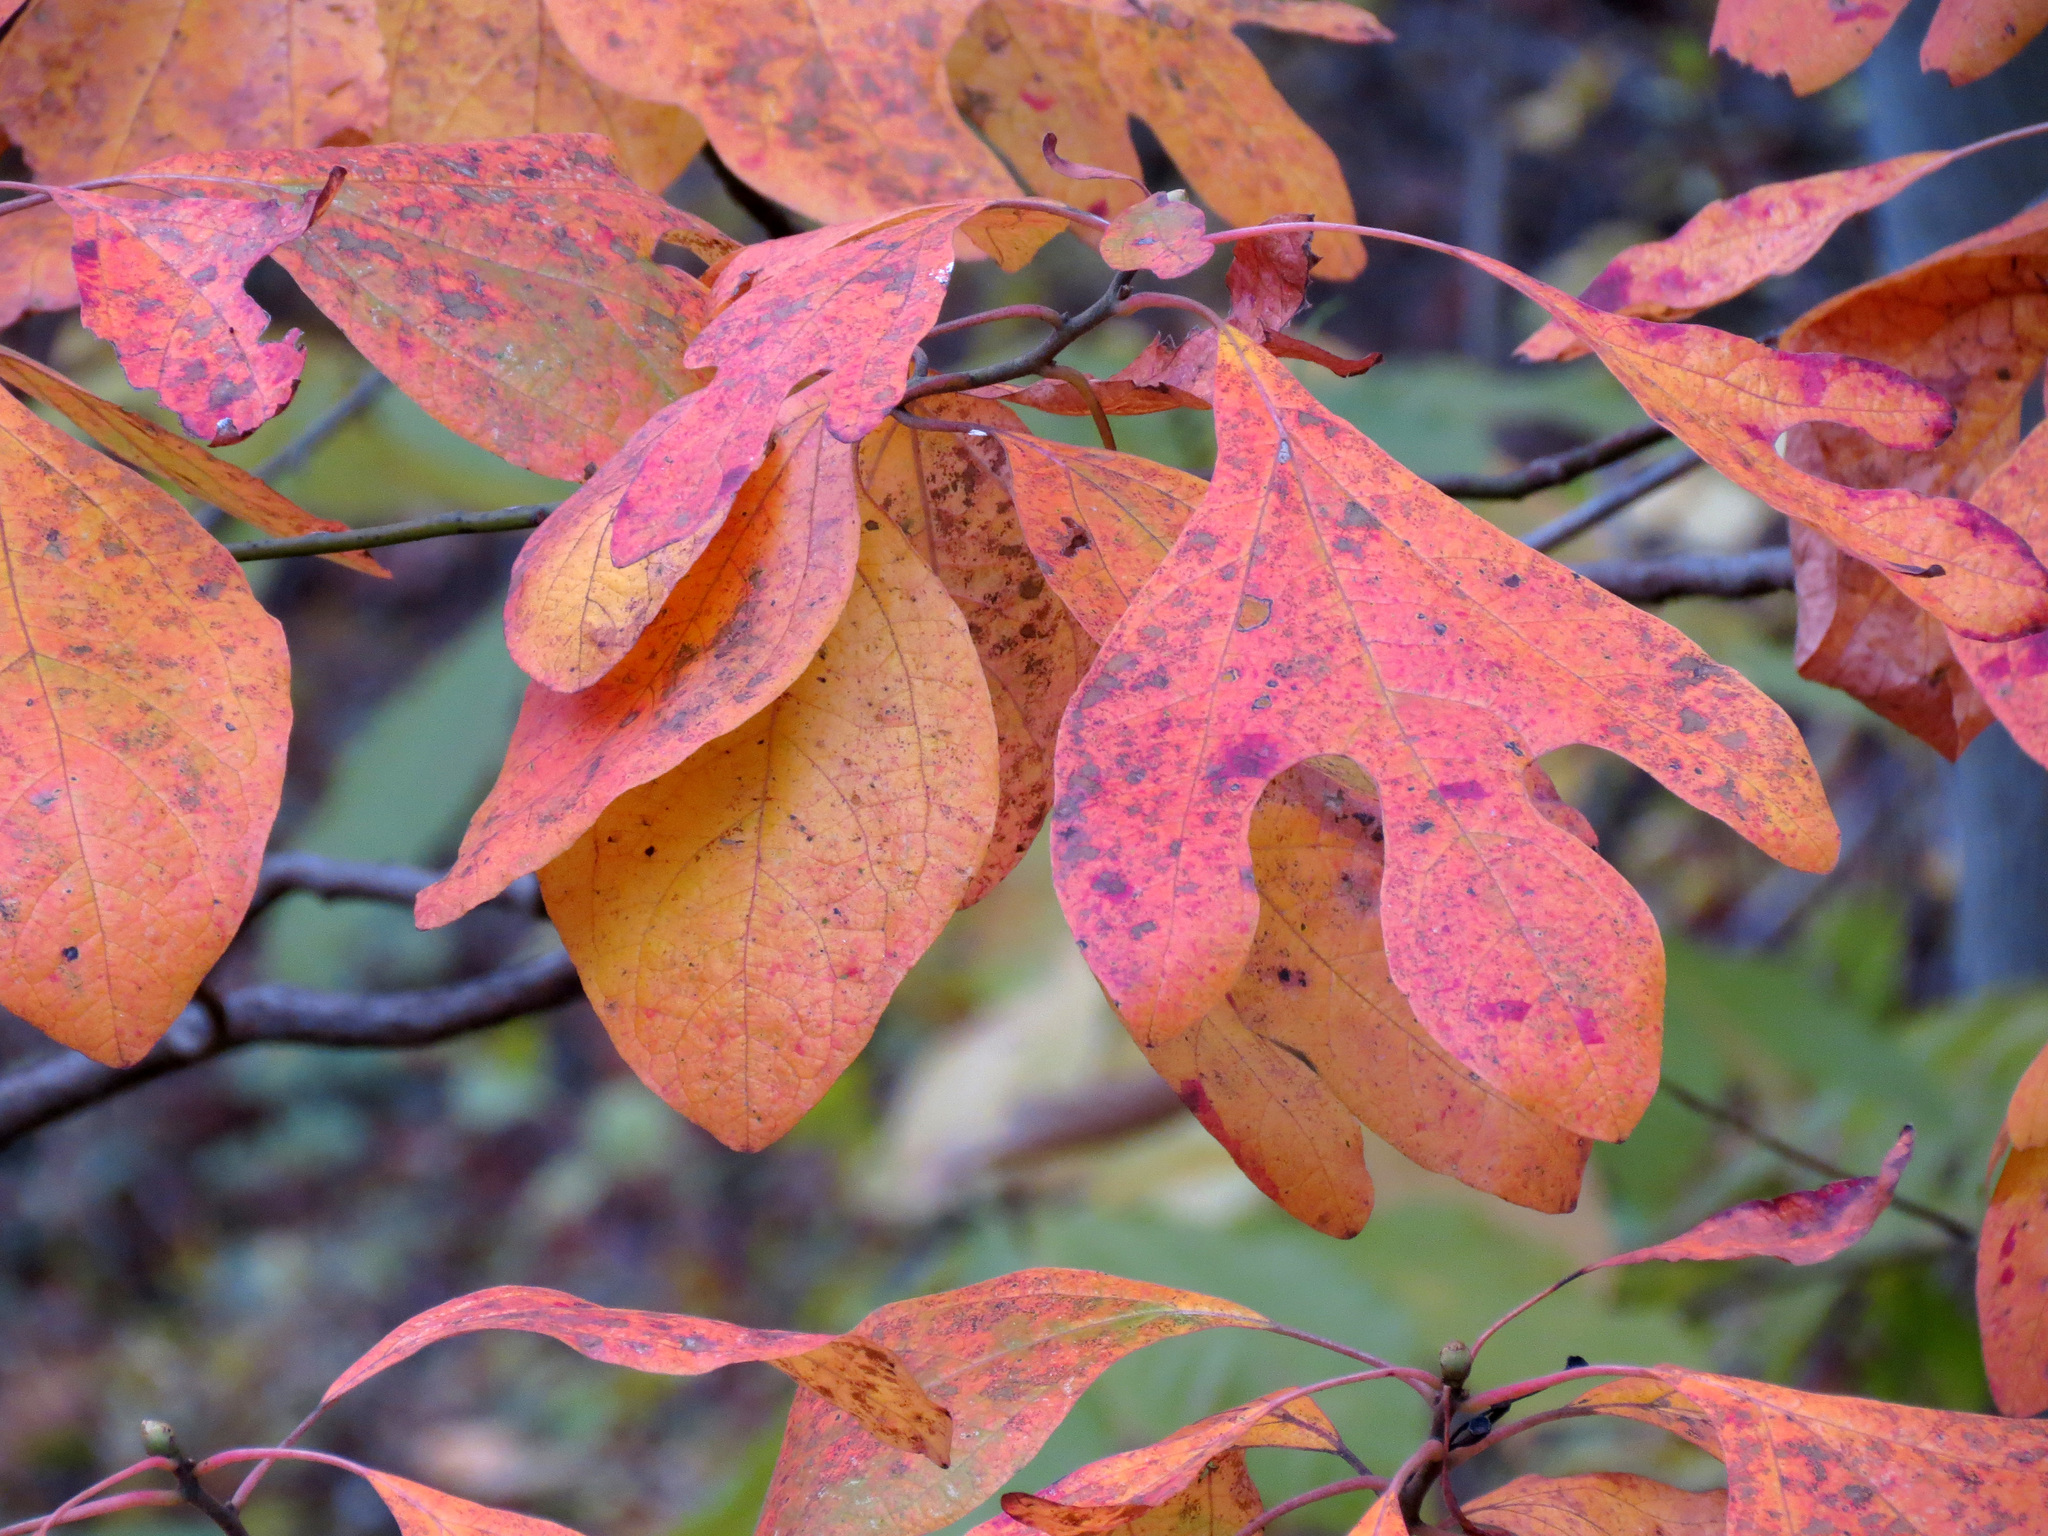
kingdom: Plantae
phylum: Tracheophyta
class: Magnoliopsida
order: Laurales
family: Lauraceae
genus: Sassafras
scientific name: Sassafras albidum
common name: Sassafras
